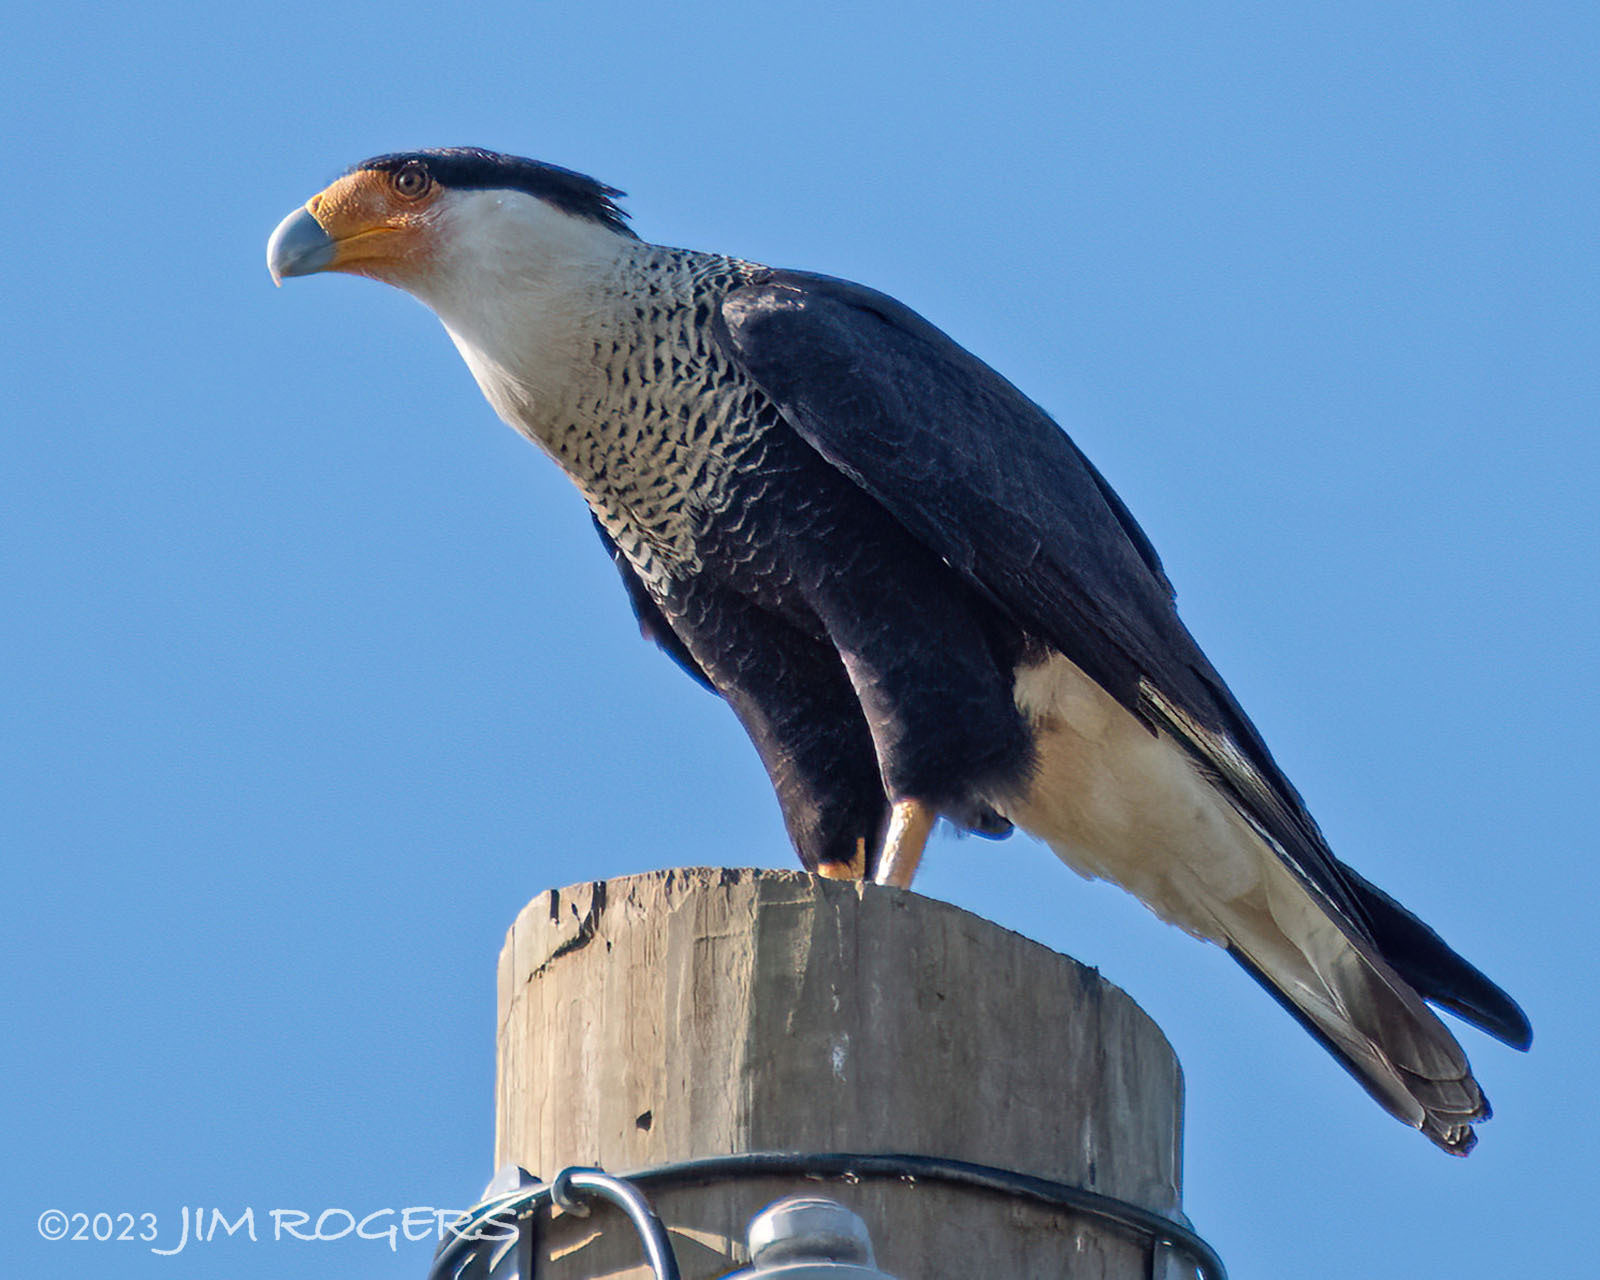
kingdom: Animalia
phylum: Chordata
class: Aves
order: Falconiformes
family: Falconidae
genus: Caracara
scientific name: Caracara plancus
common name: Southern caracara
